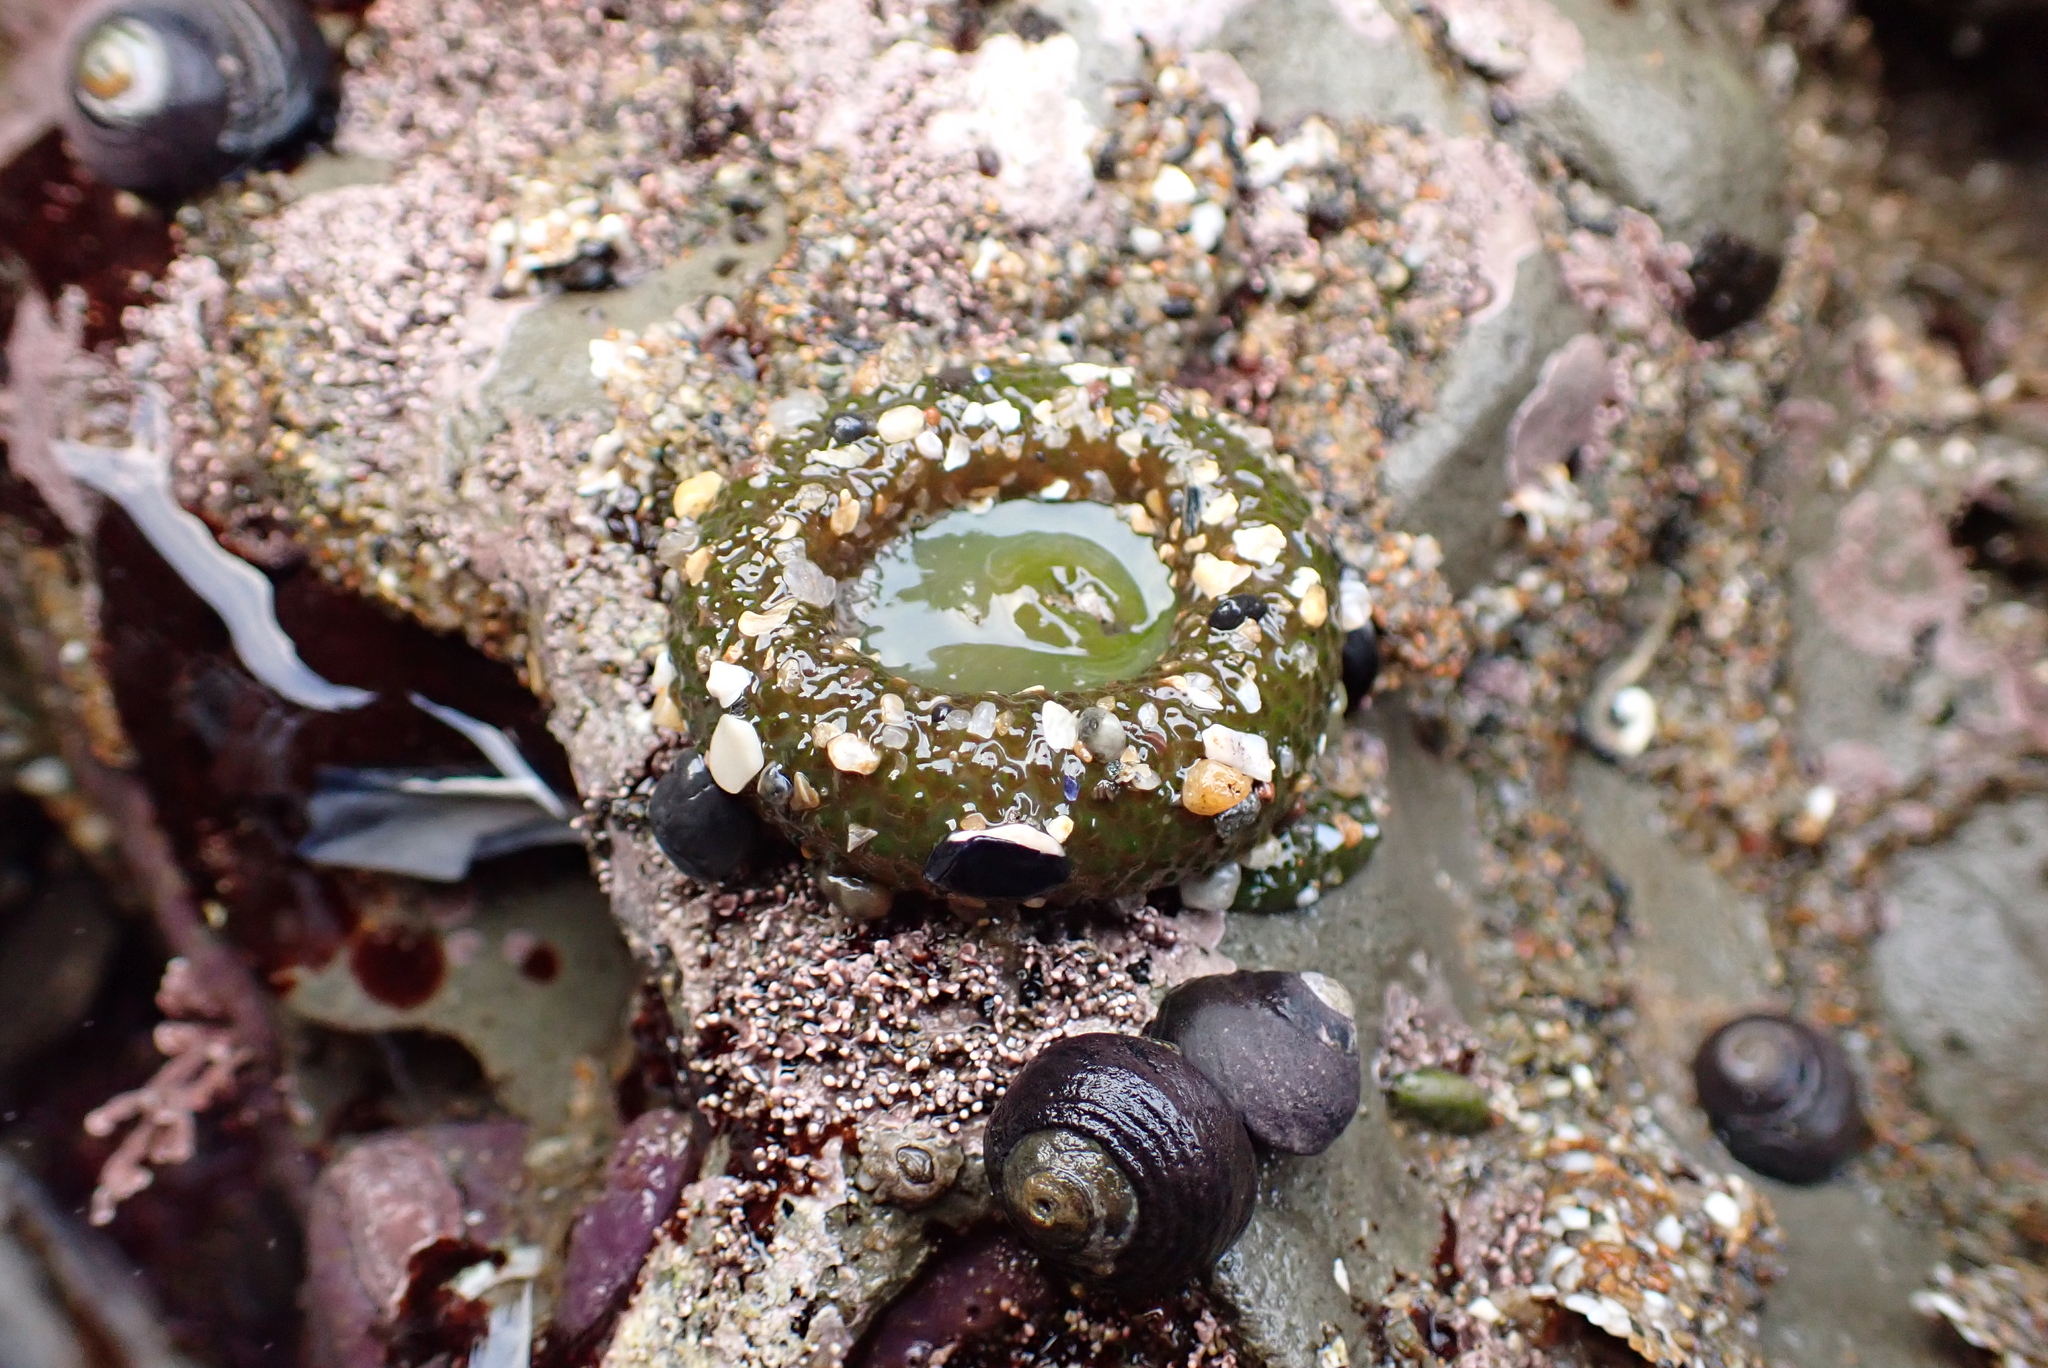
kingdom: Animalia
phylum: Cnidaria
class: Anthozoa
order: Actiniaria
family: Actiniidae
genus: Anthopleura
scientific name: Anthopleura xanthogrammica
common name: Giant green anemone
